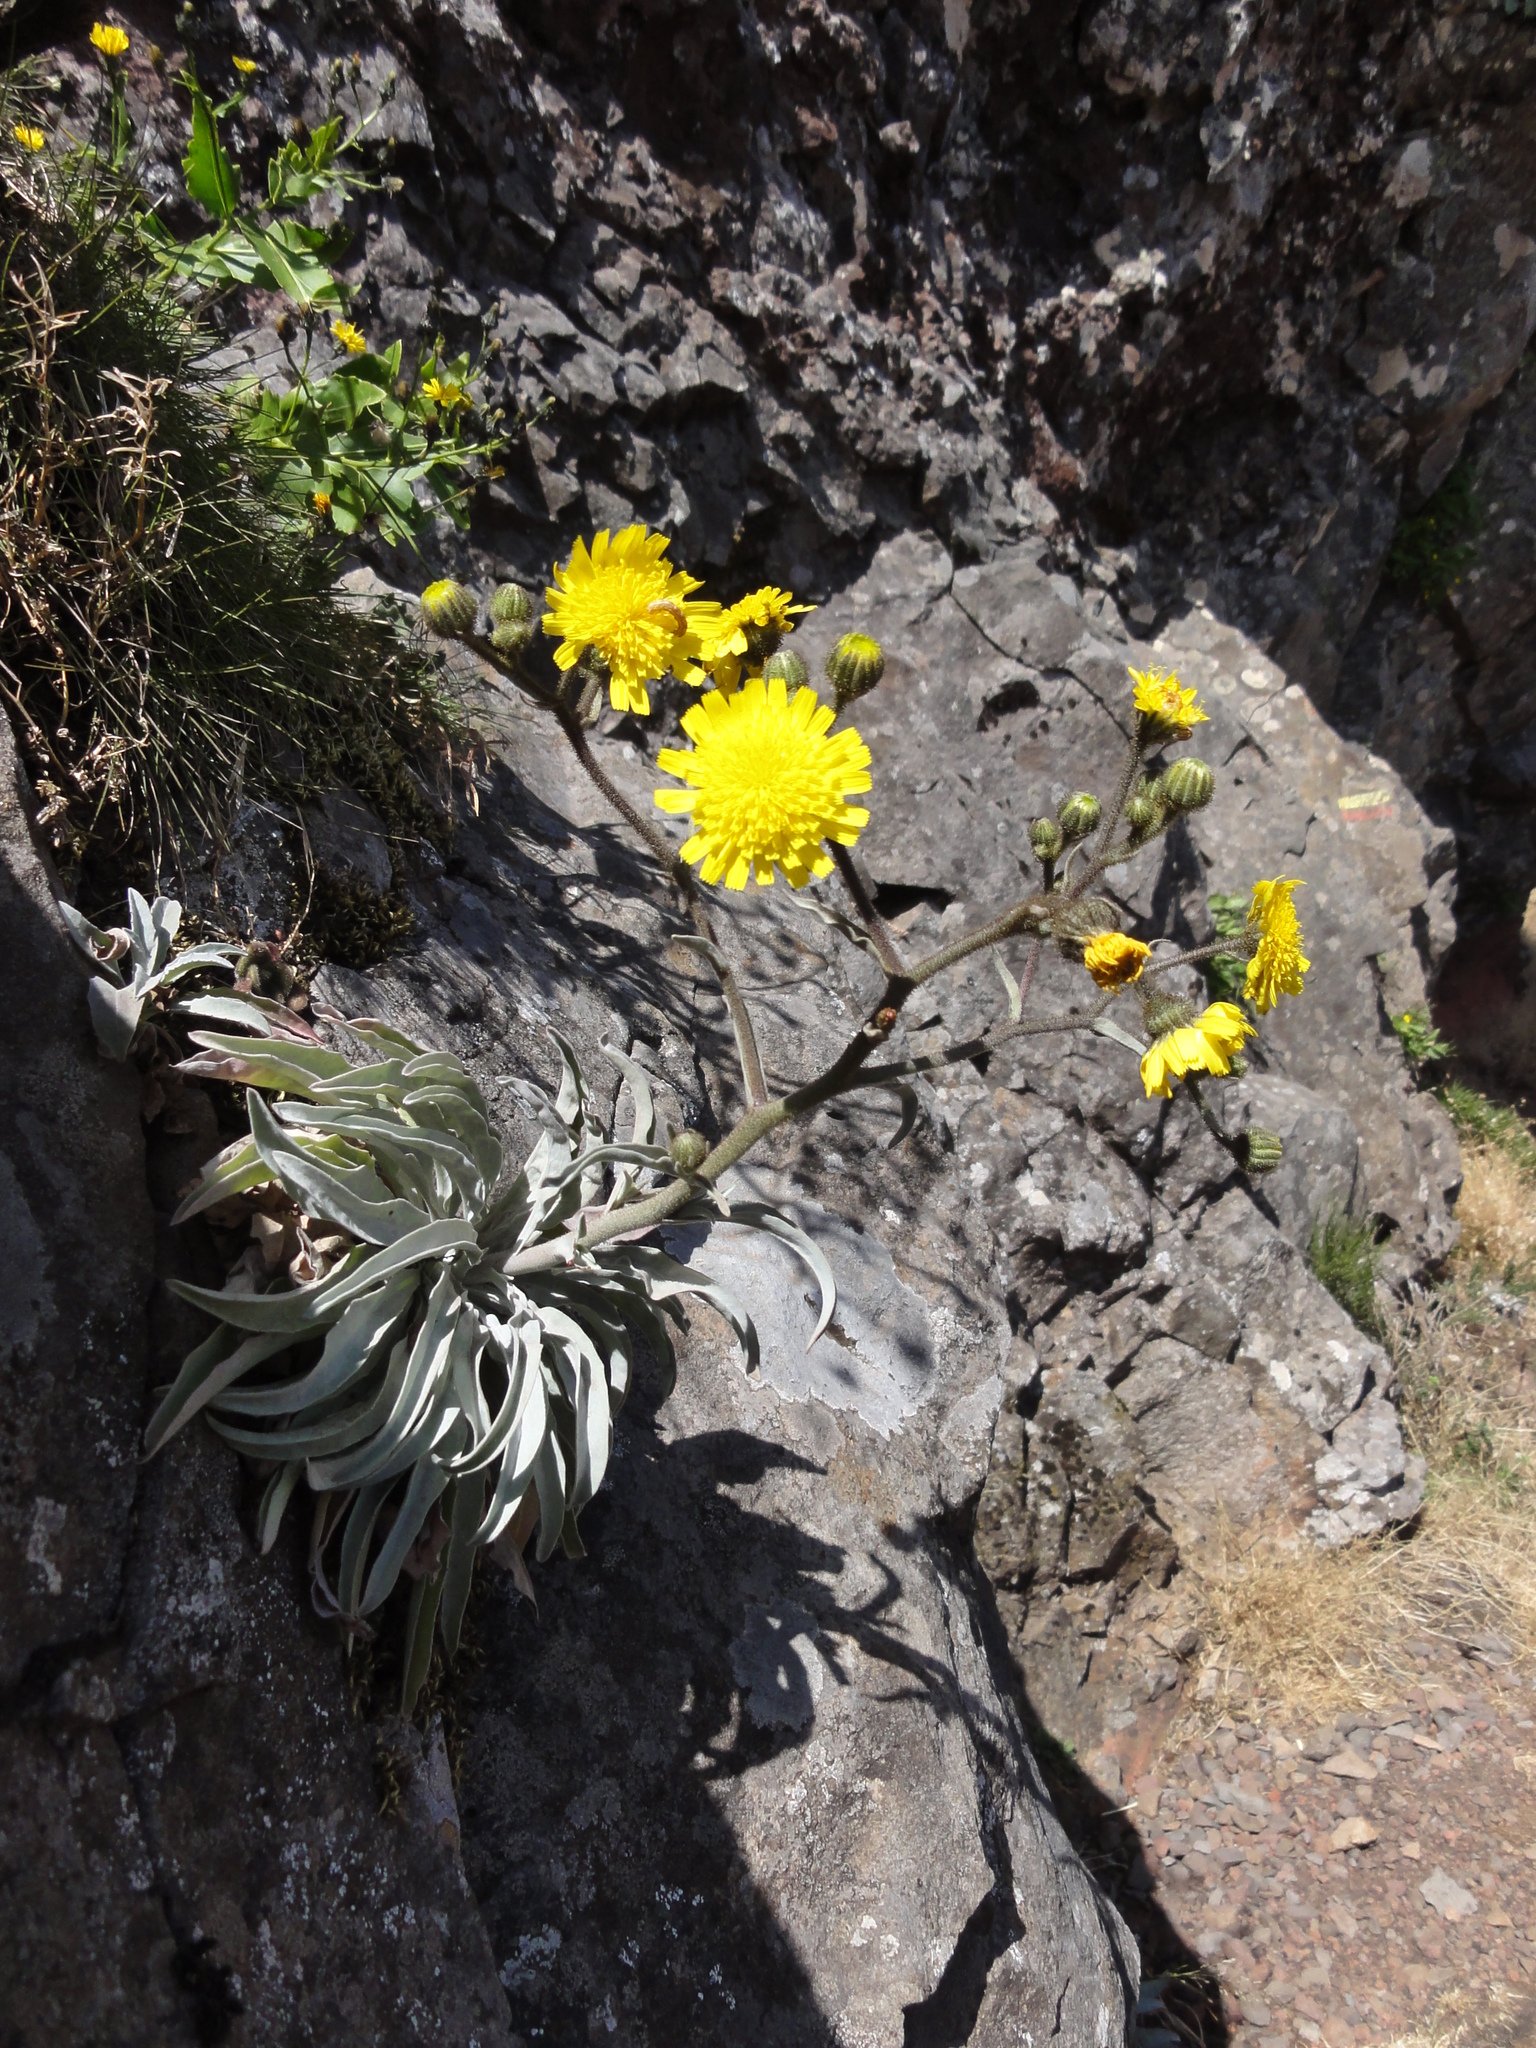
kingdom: Plantae
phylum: Tracheophyta
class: Magnoliopsida
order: Asterales
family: Asteraceae
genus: Andryala
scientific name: Andryala glandulosa
